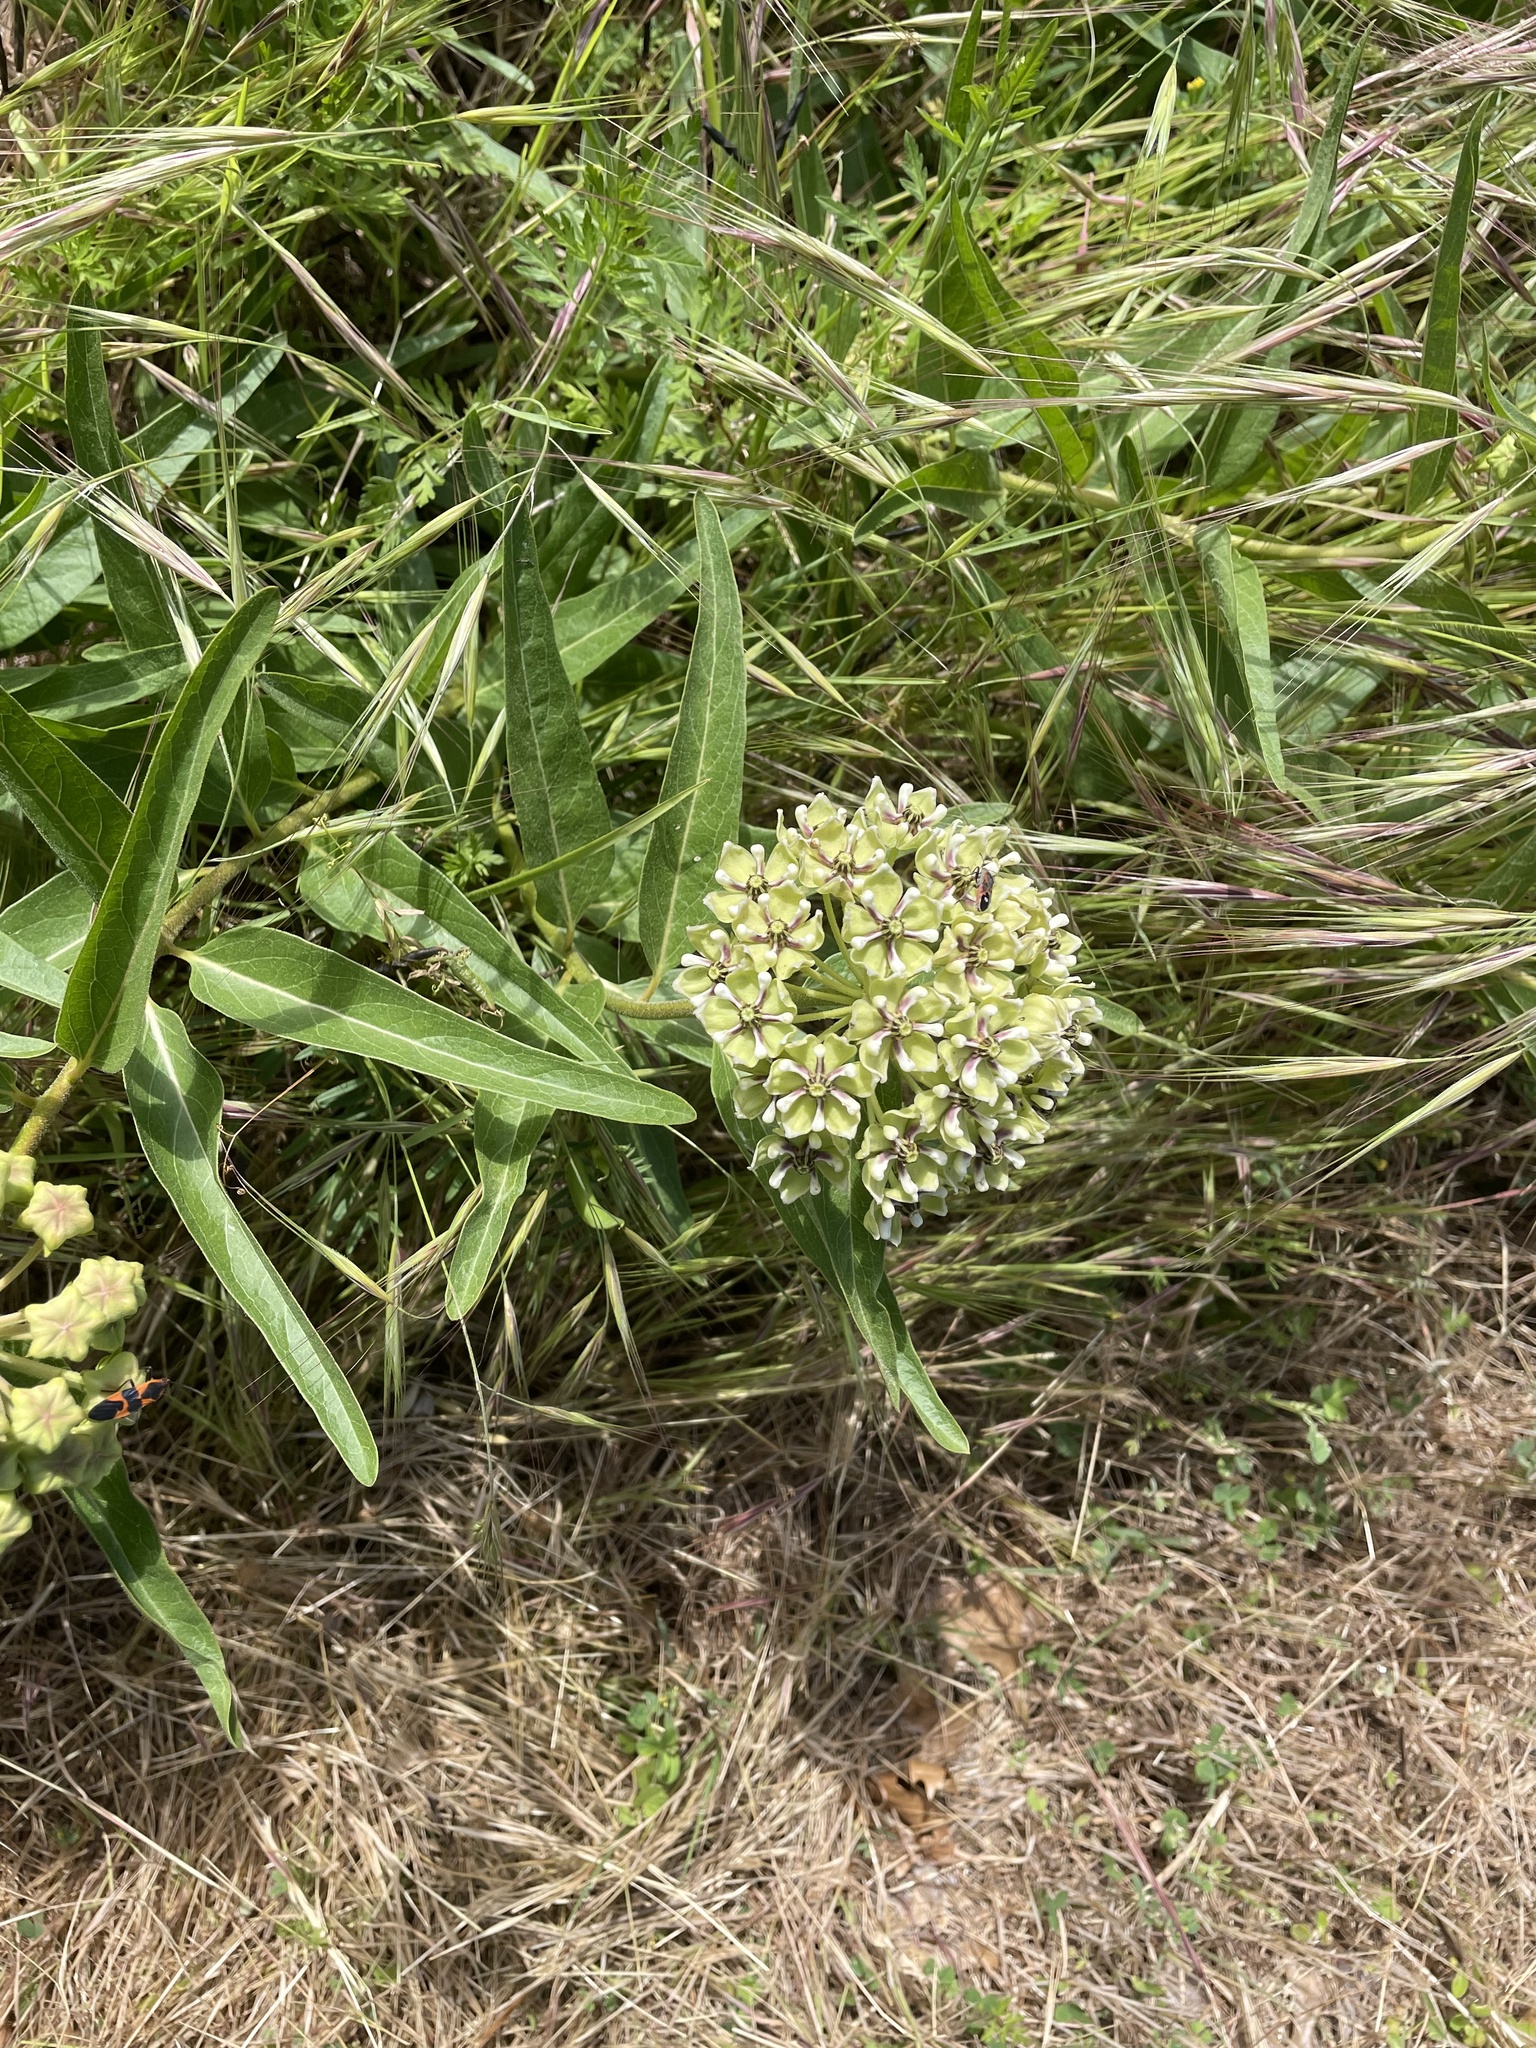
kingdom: Plantae
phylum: Tracheophyta
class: Magnoliopsida
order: Gentianales
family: Apocynaceae
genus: Asclepias
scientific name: Asclepias asperula
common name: Antelope horns
